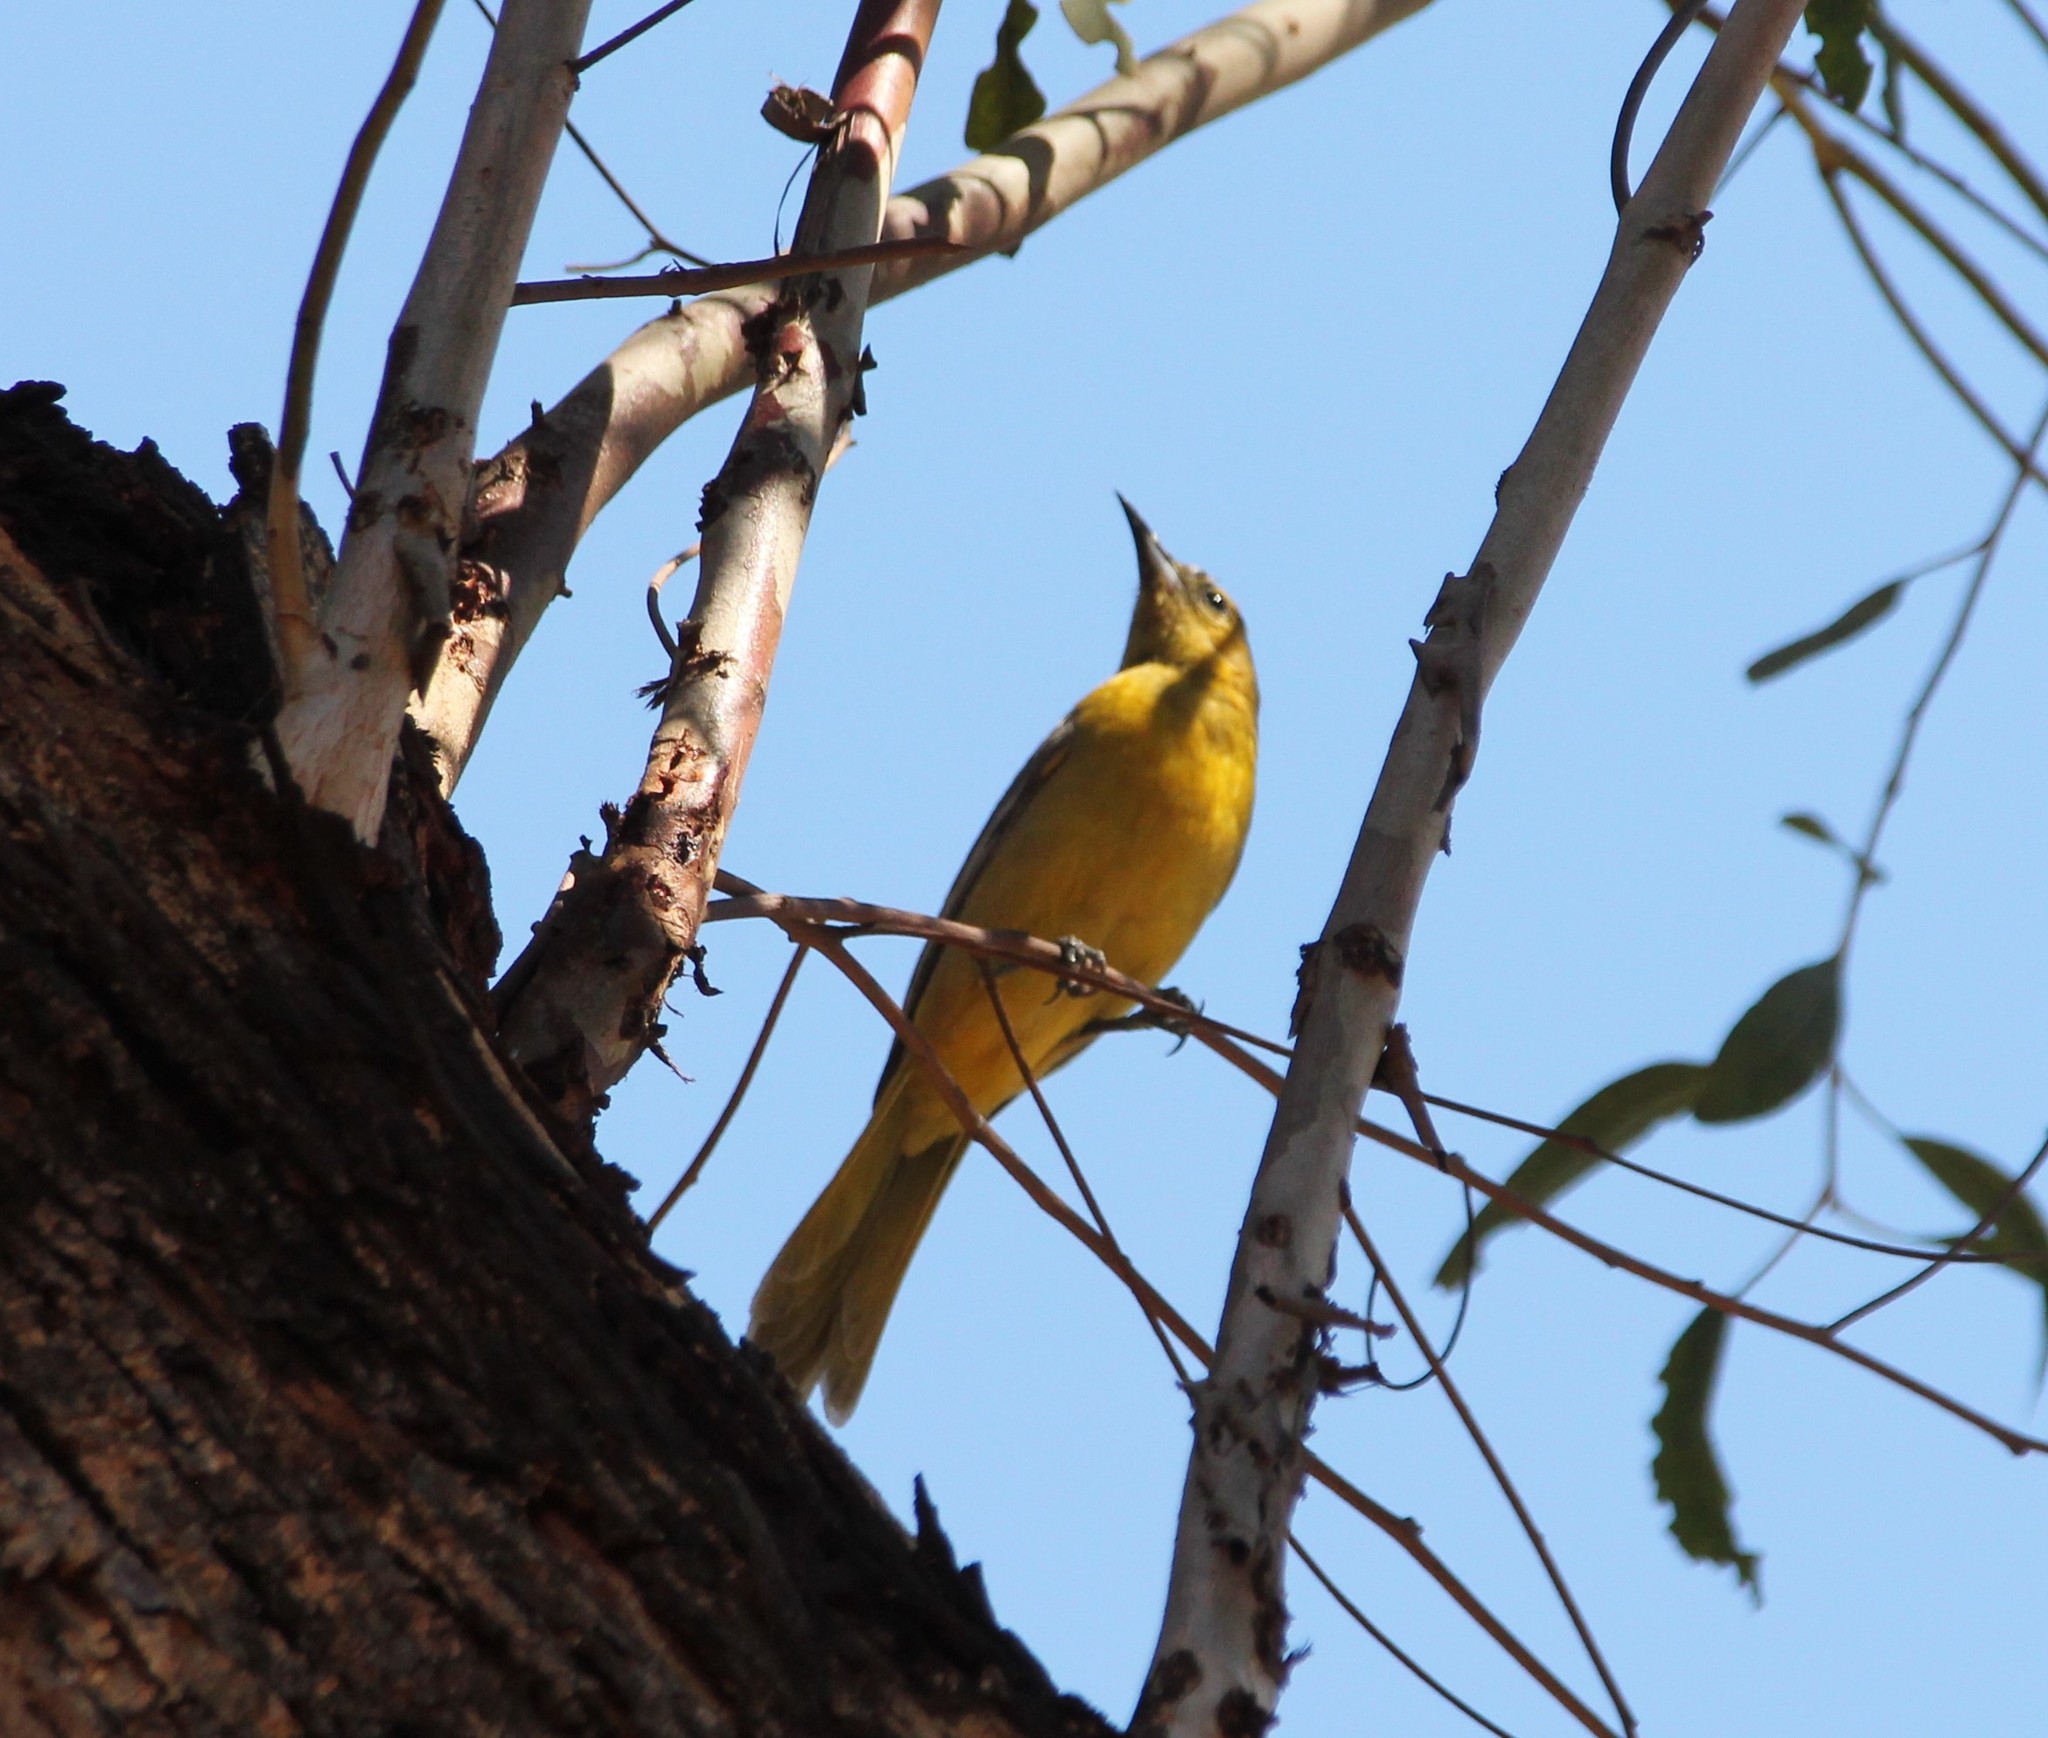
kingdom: Animalia
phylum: Chordata
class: Aves
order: Passeriformes
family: Icteridae
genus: Icterus
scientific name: Icterus cucullatus
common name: Hooded oriole
